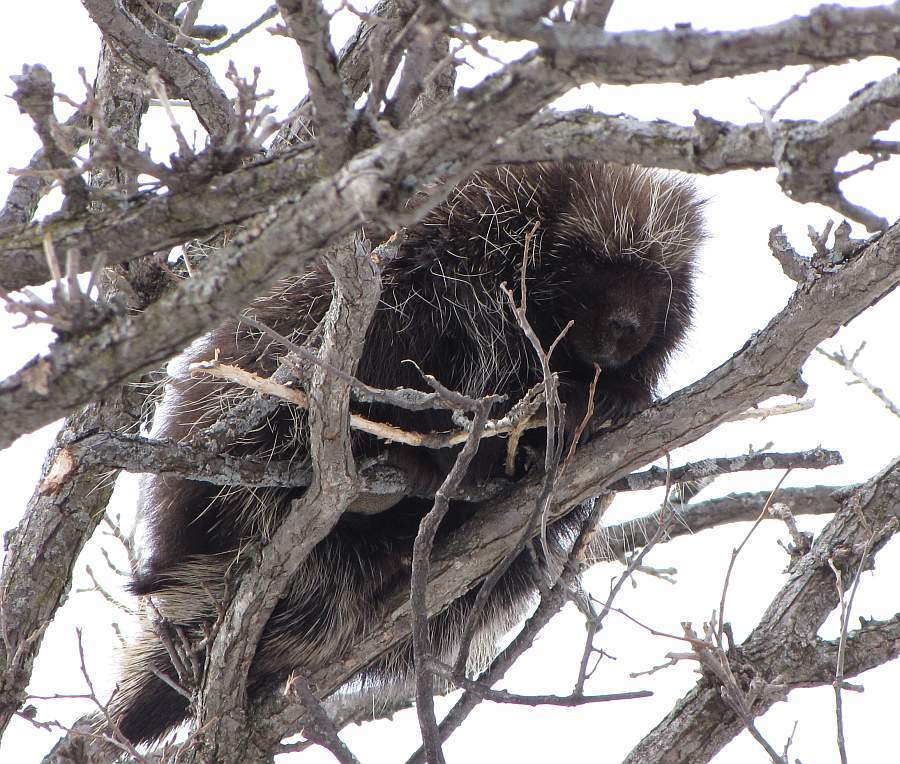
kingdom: Animalia
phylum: Chordata
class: Mammalia
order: Rodentia
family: Erethizontidae
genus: Erethizon
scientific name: Erethizon dorsatus
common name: North american porcupine
